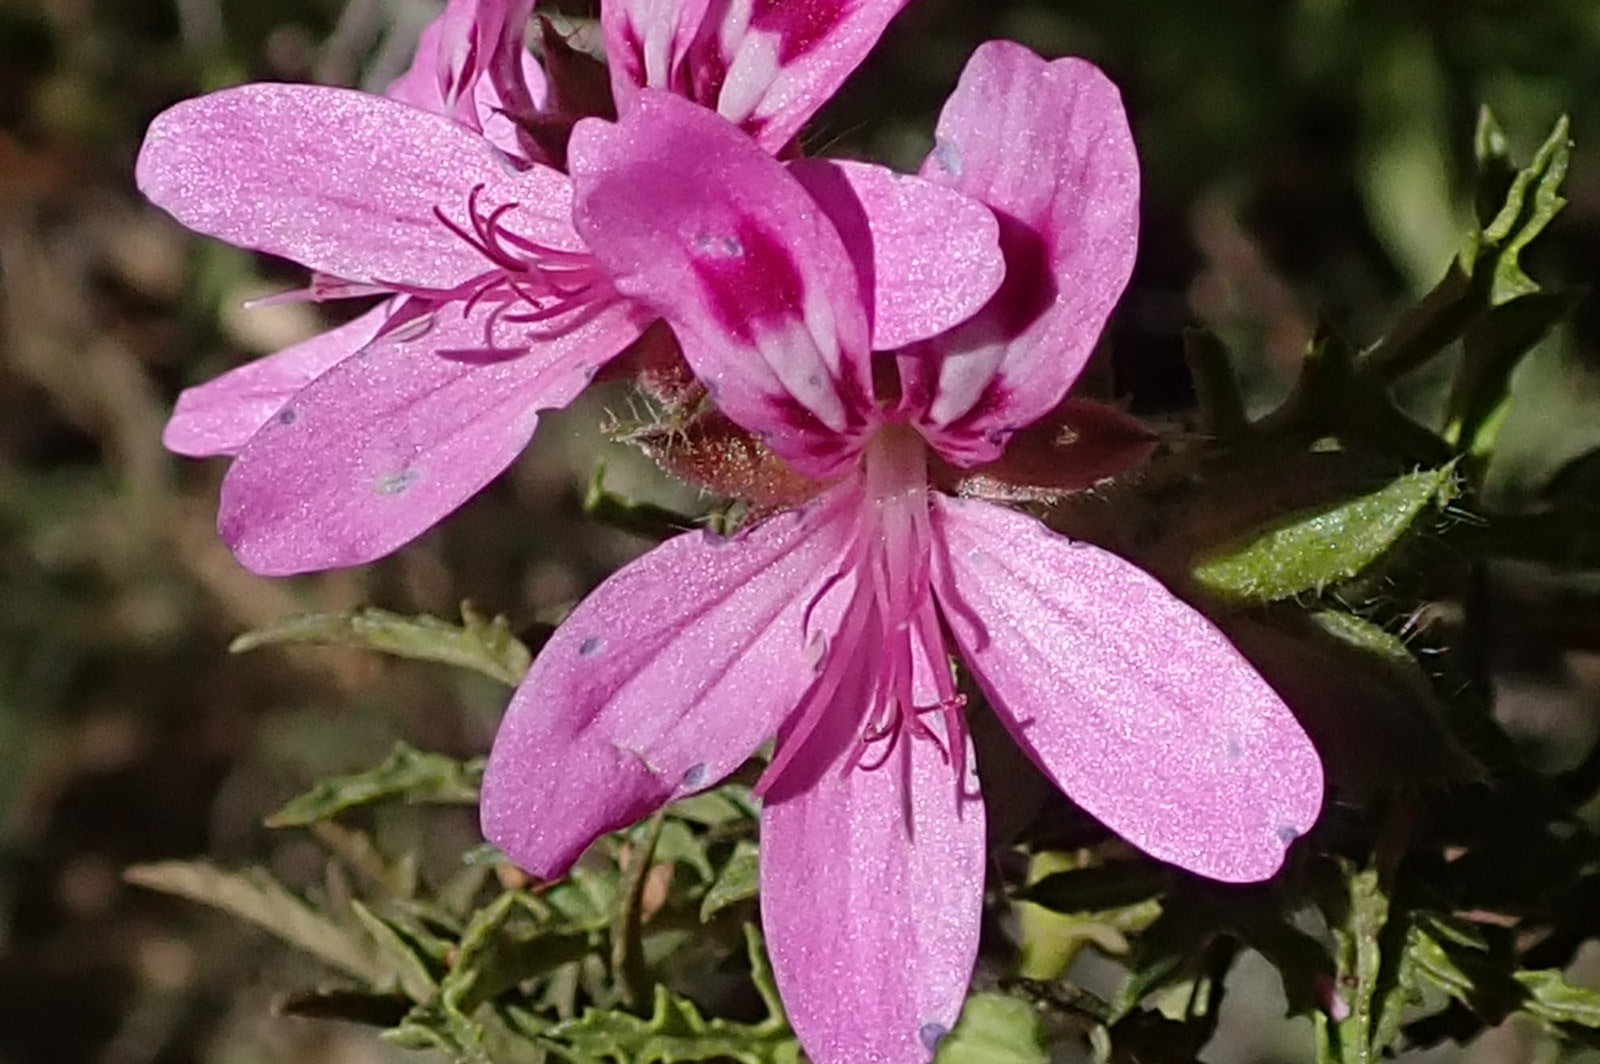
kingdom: Plantae
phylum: Tracheophyta
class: Magnoliopsida
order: Geraniales
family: Geraniaceae
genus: Pelargonium
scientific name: Pelargonium glutinosum
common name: Pheasant-foot geranium
